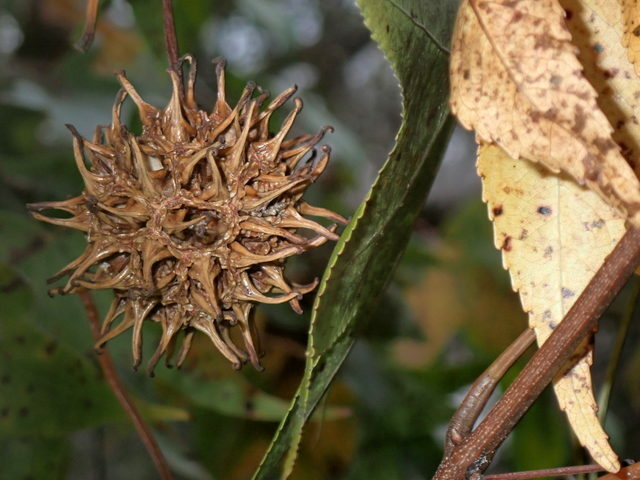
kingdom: Plantae
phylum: Tracheophyta
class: Magnoliopsida
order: Saxifragales
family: Altingiaceae
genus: Liquidambar
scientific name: Liquidambar styraciflua
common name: Sweet gum
